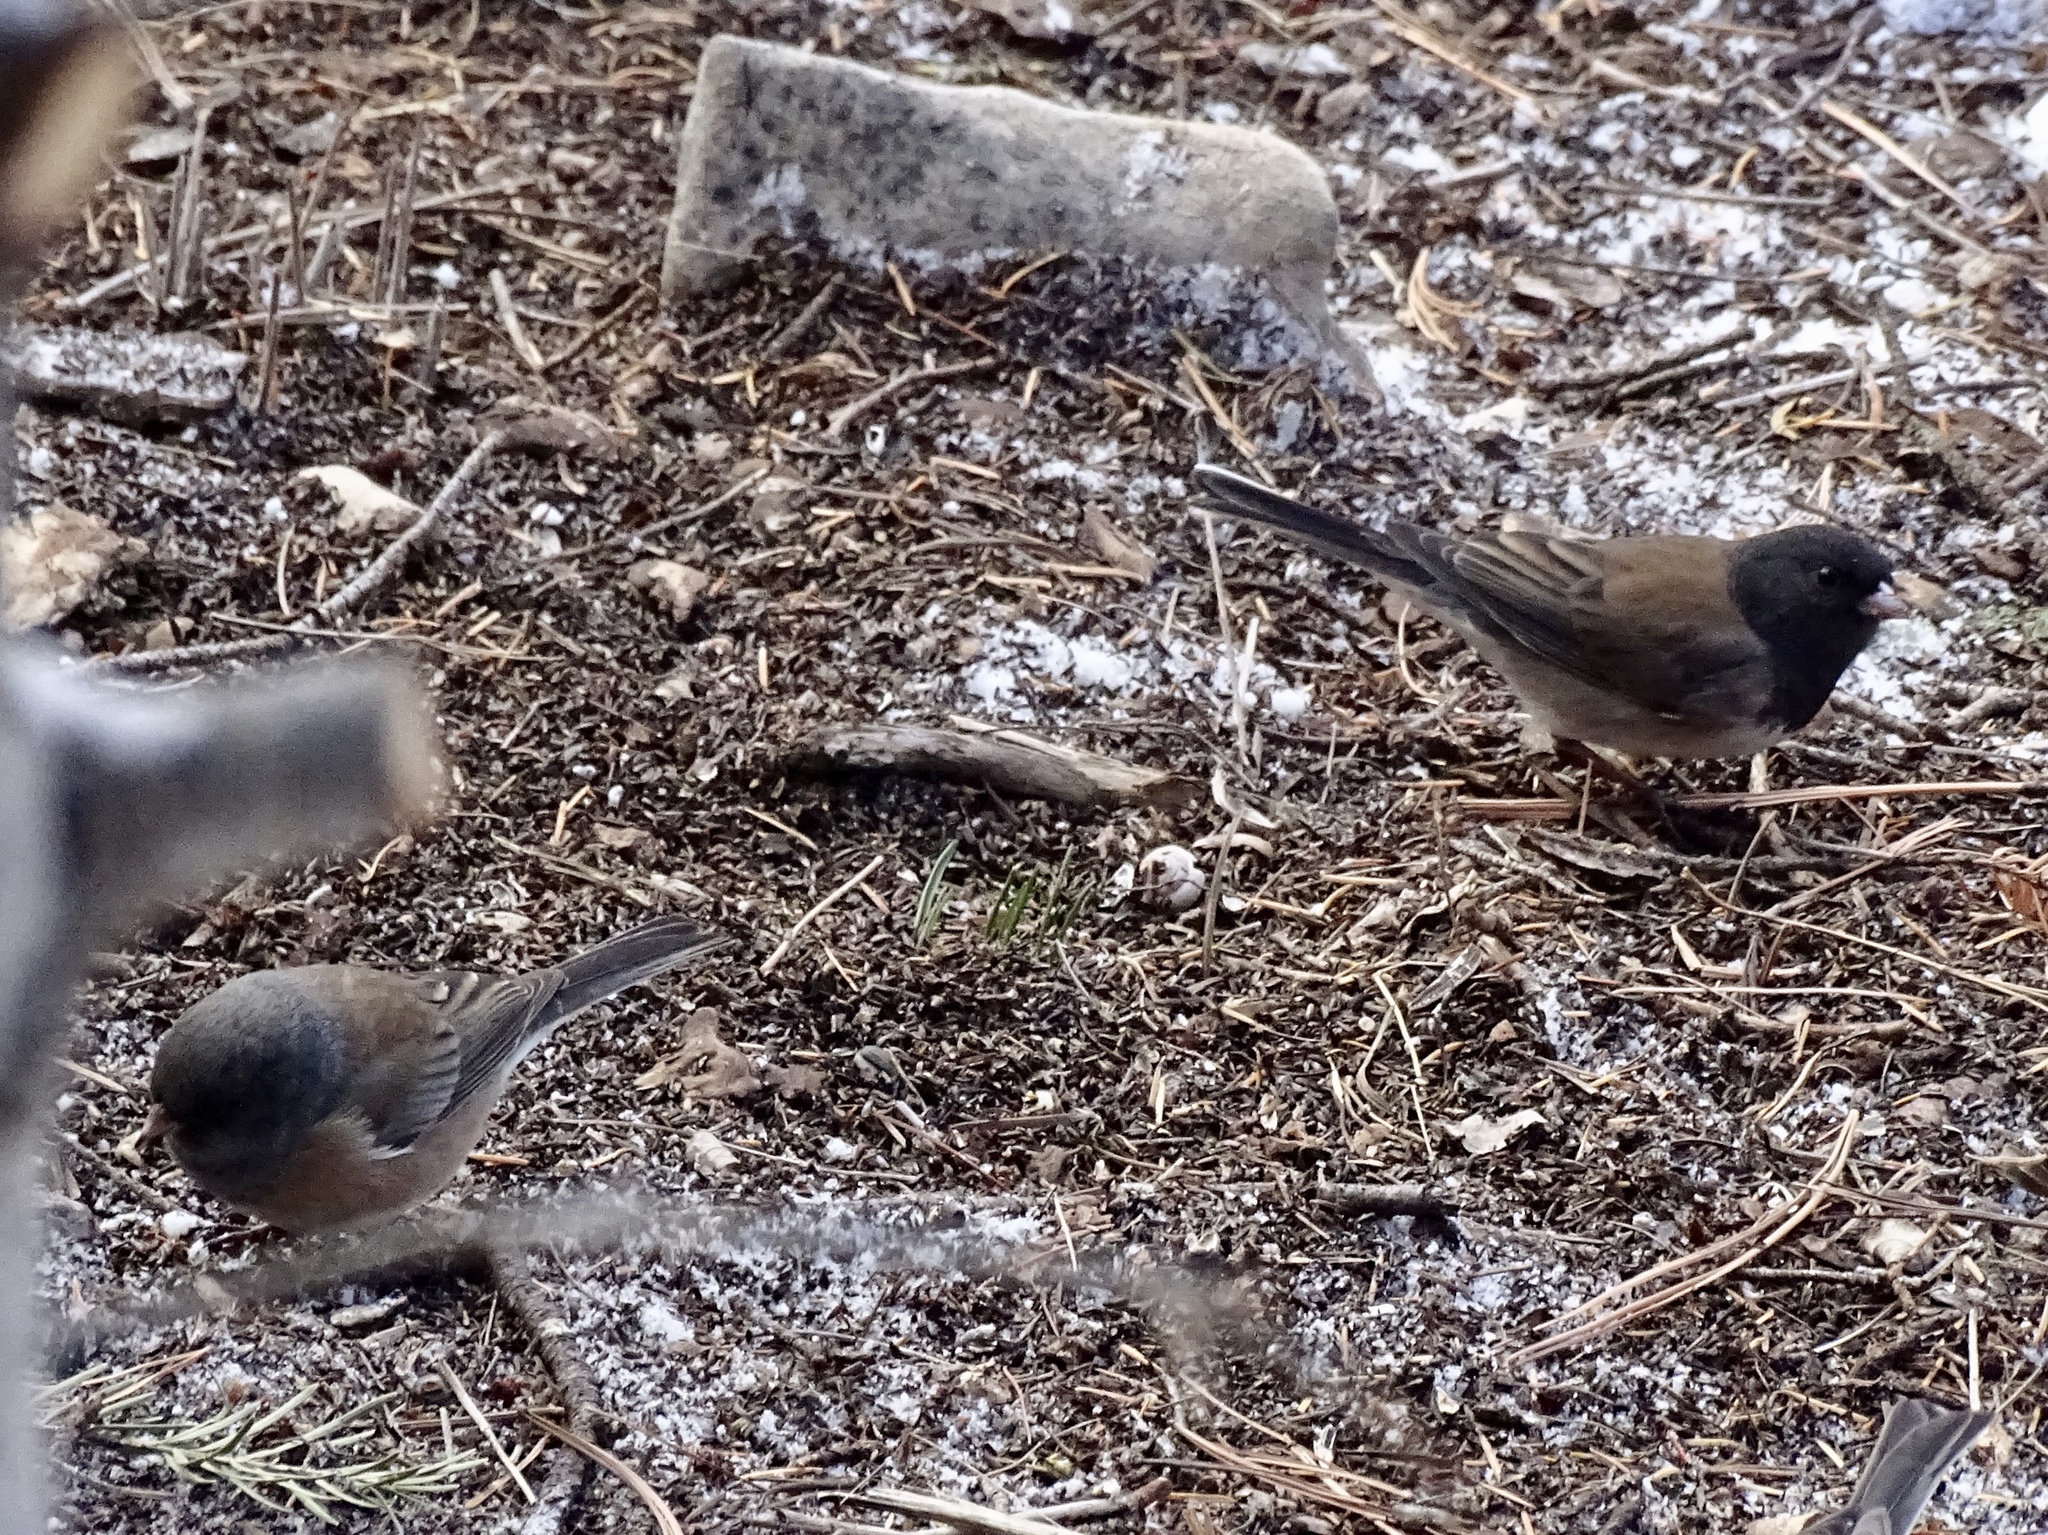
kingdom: Animalia
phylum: Chordata
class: Aves
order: Passeriformes
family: Passerellidae
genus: Junco
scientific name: Junco hyemalis
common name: Dark-eyed junco
